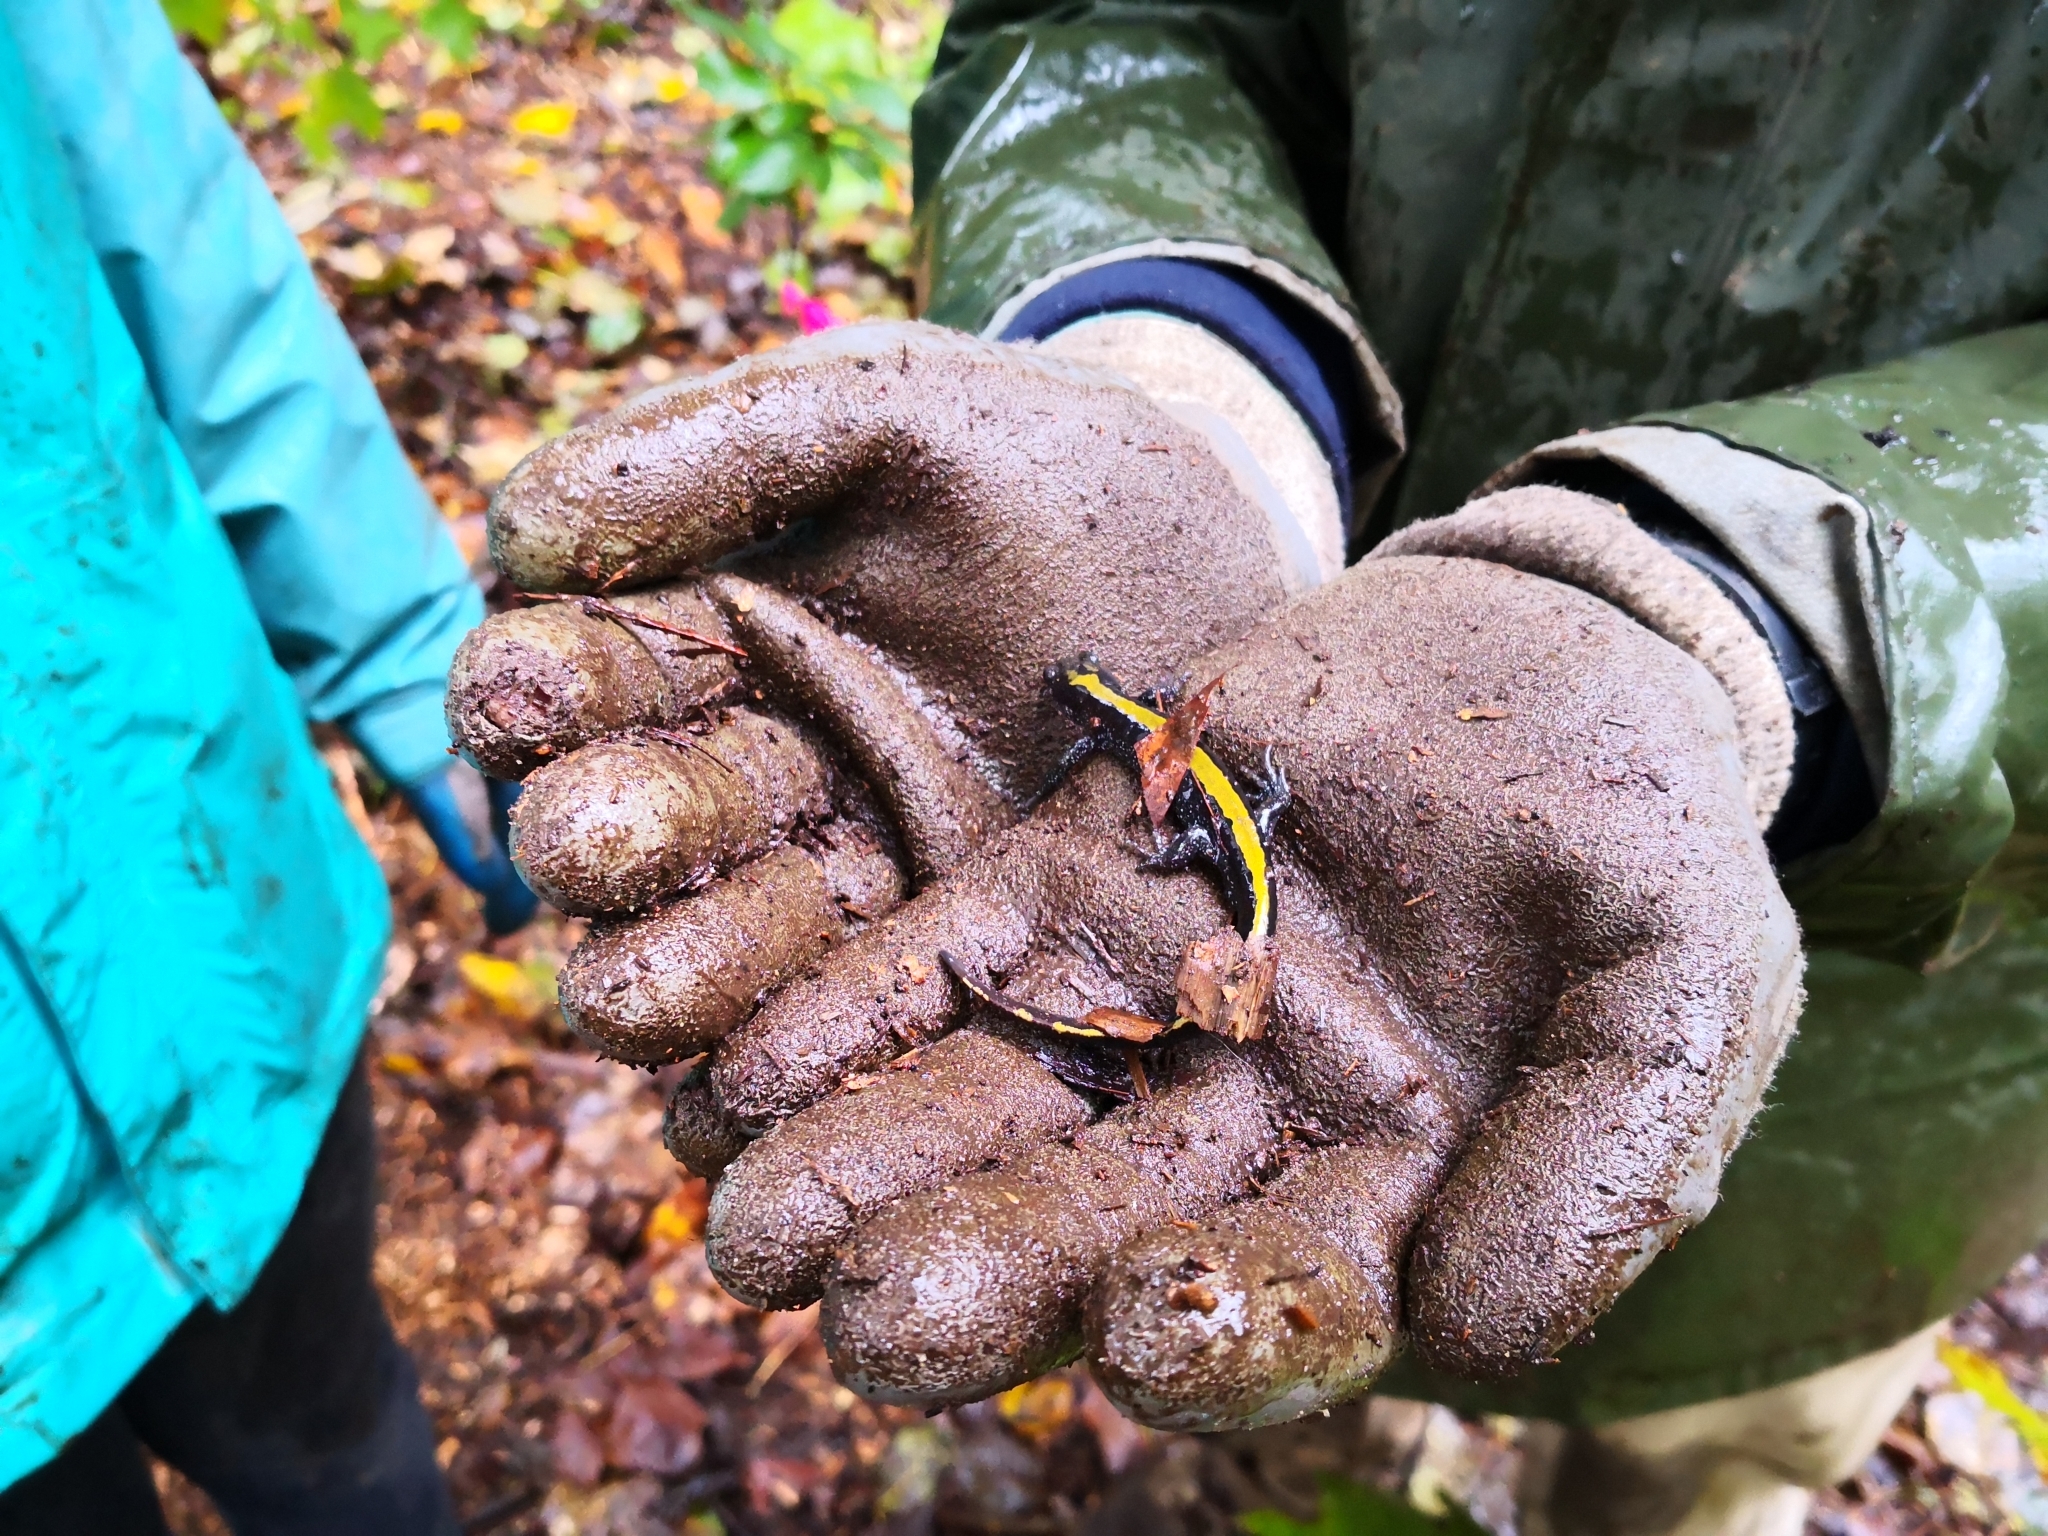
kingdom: Animalia
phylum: Chordata
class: Amphibia
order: Caudata
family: Ambystomatidae
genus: Ambystoma
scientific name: Ambystoma macrodactylum
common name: Long-toed salamander
